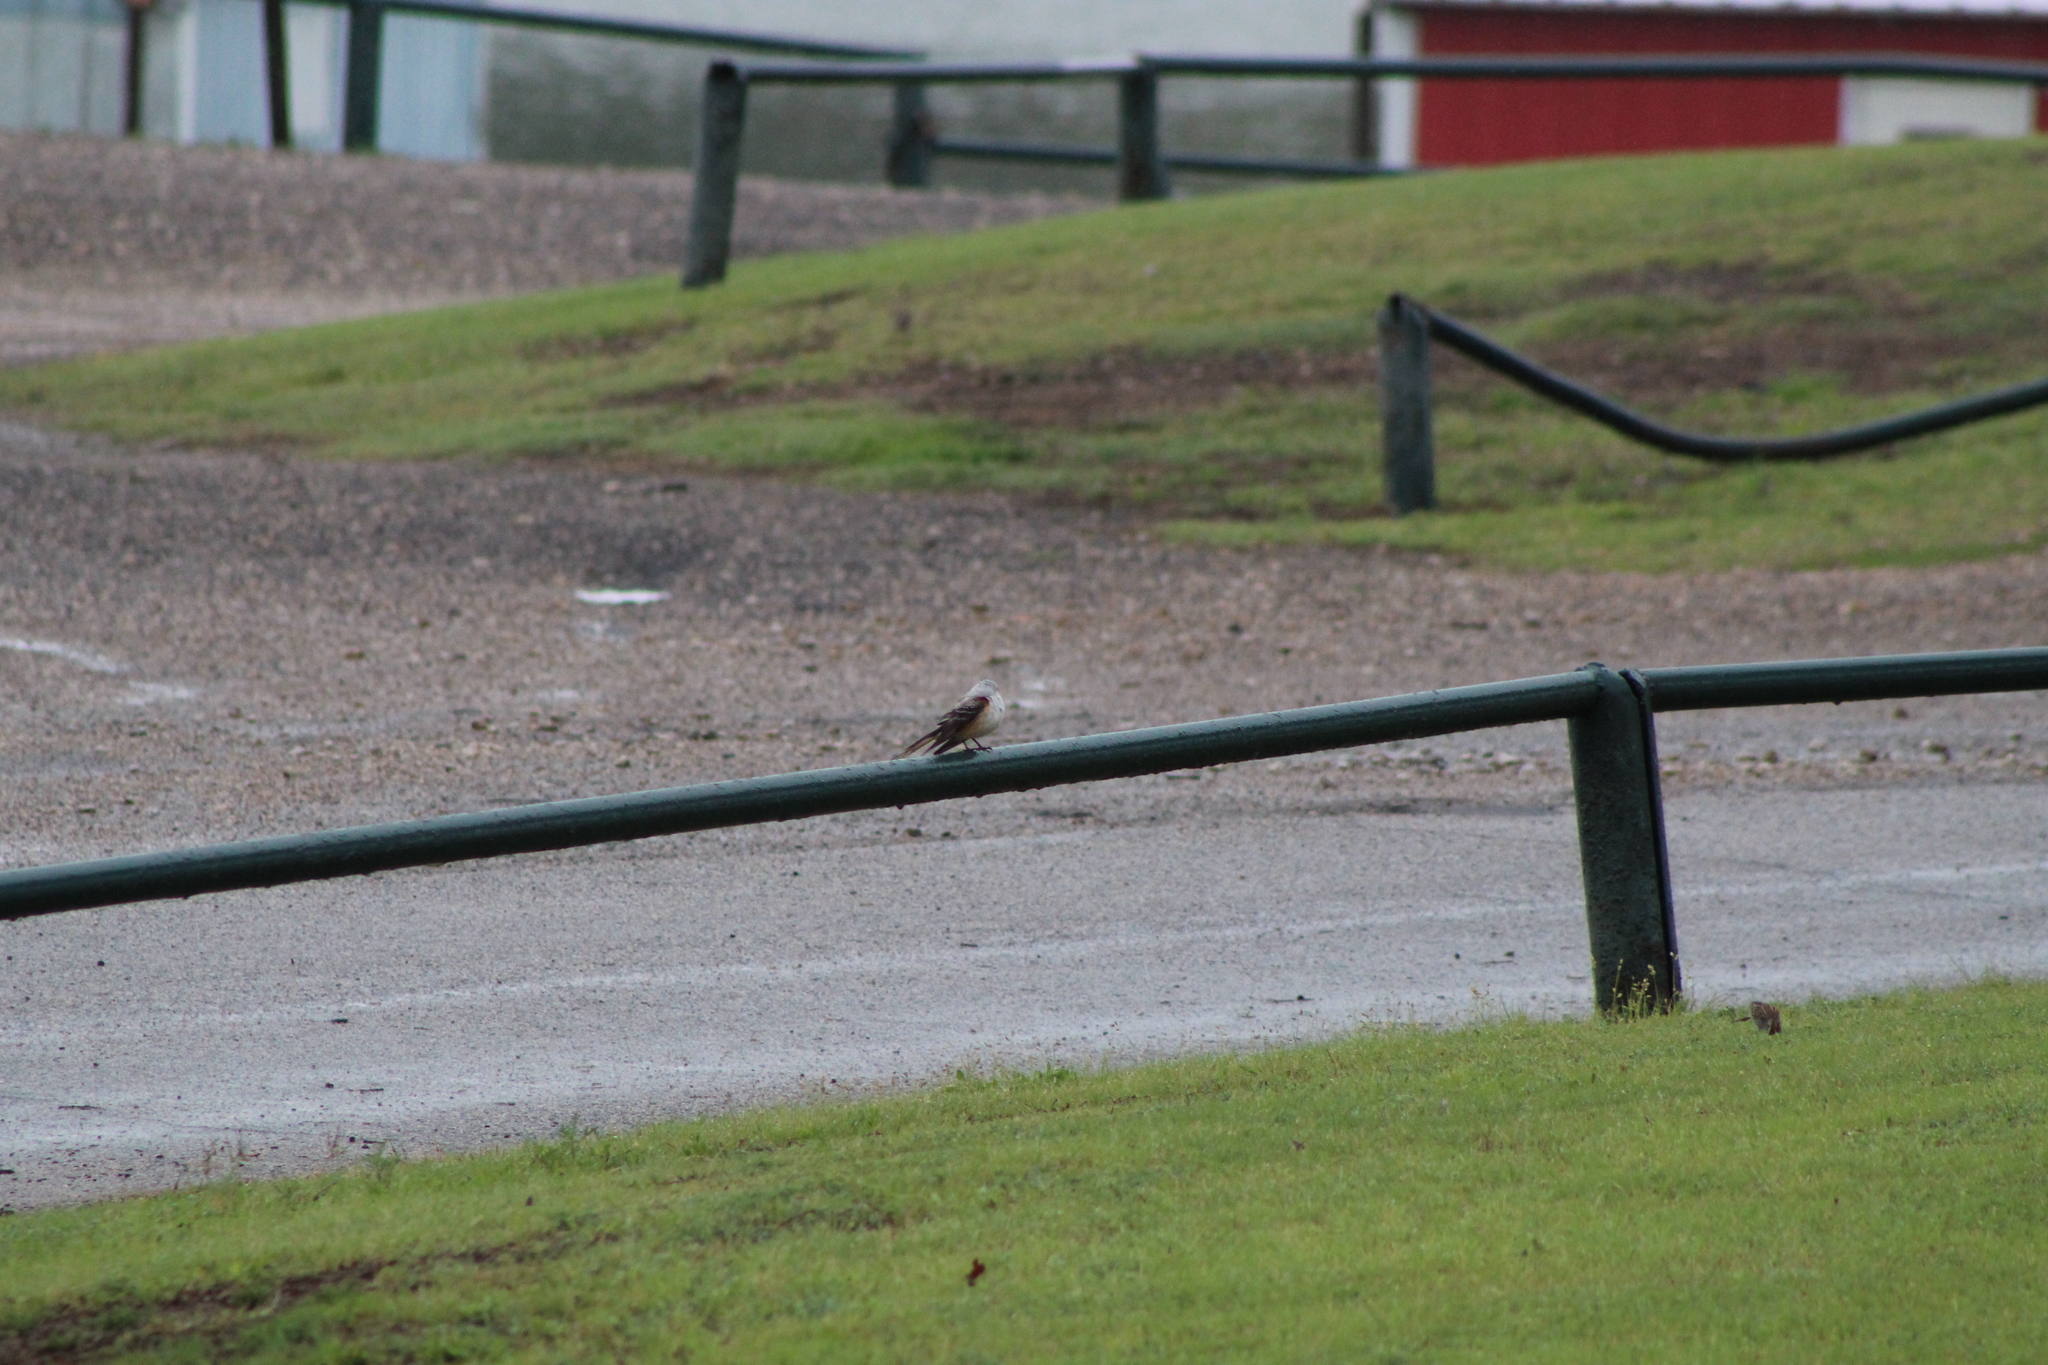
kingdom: Animalia
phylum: Chordata
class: Aves
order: Passeriformes
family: Tyrannidae
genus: Tyrannus
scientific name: Tyrannus forficatus
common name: Scissor-tailed flycatcher
